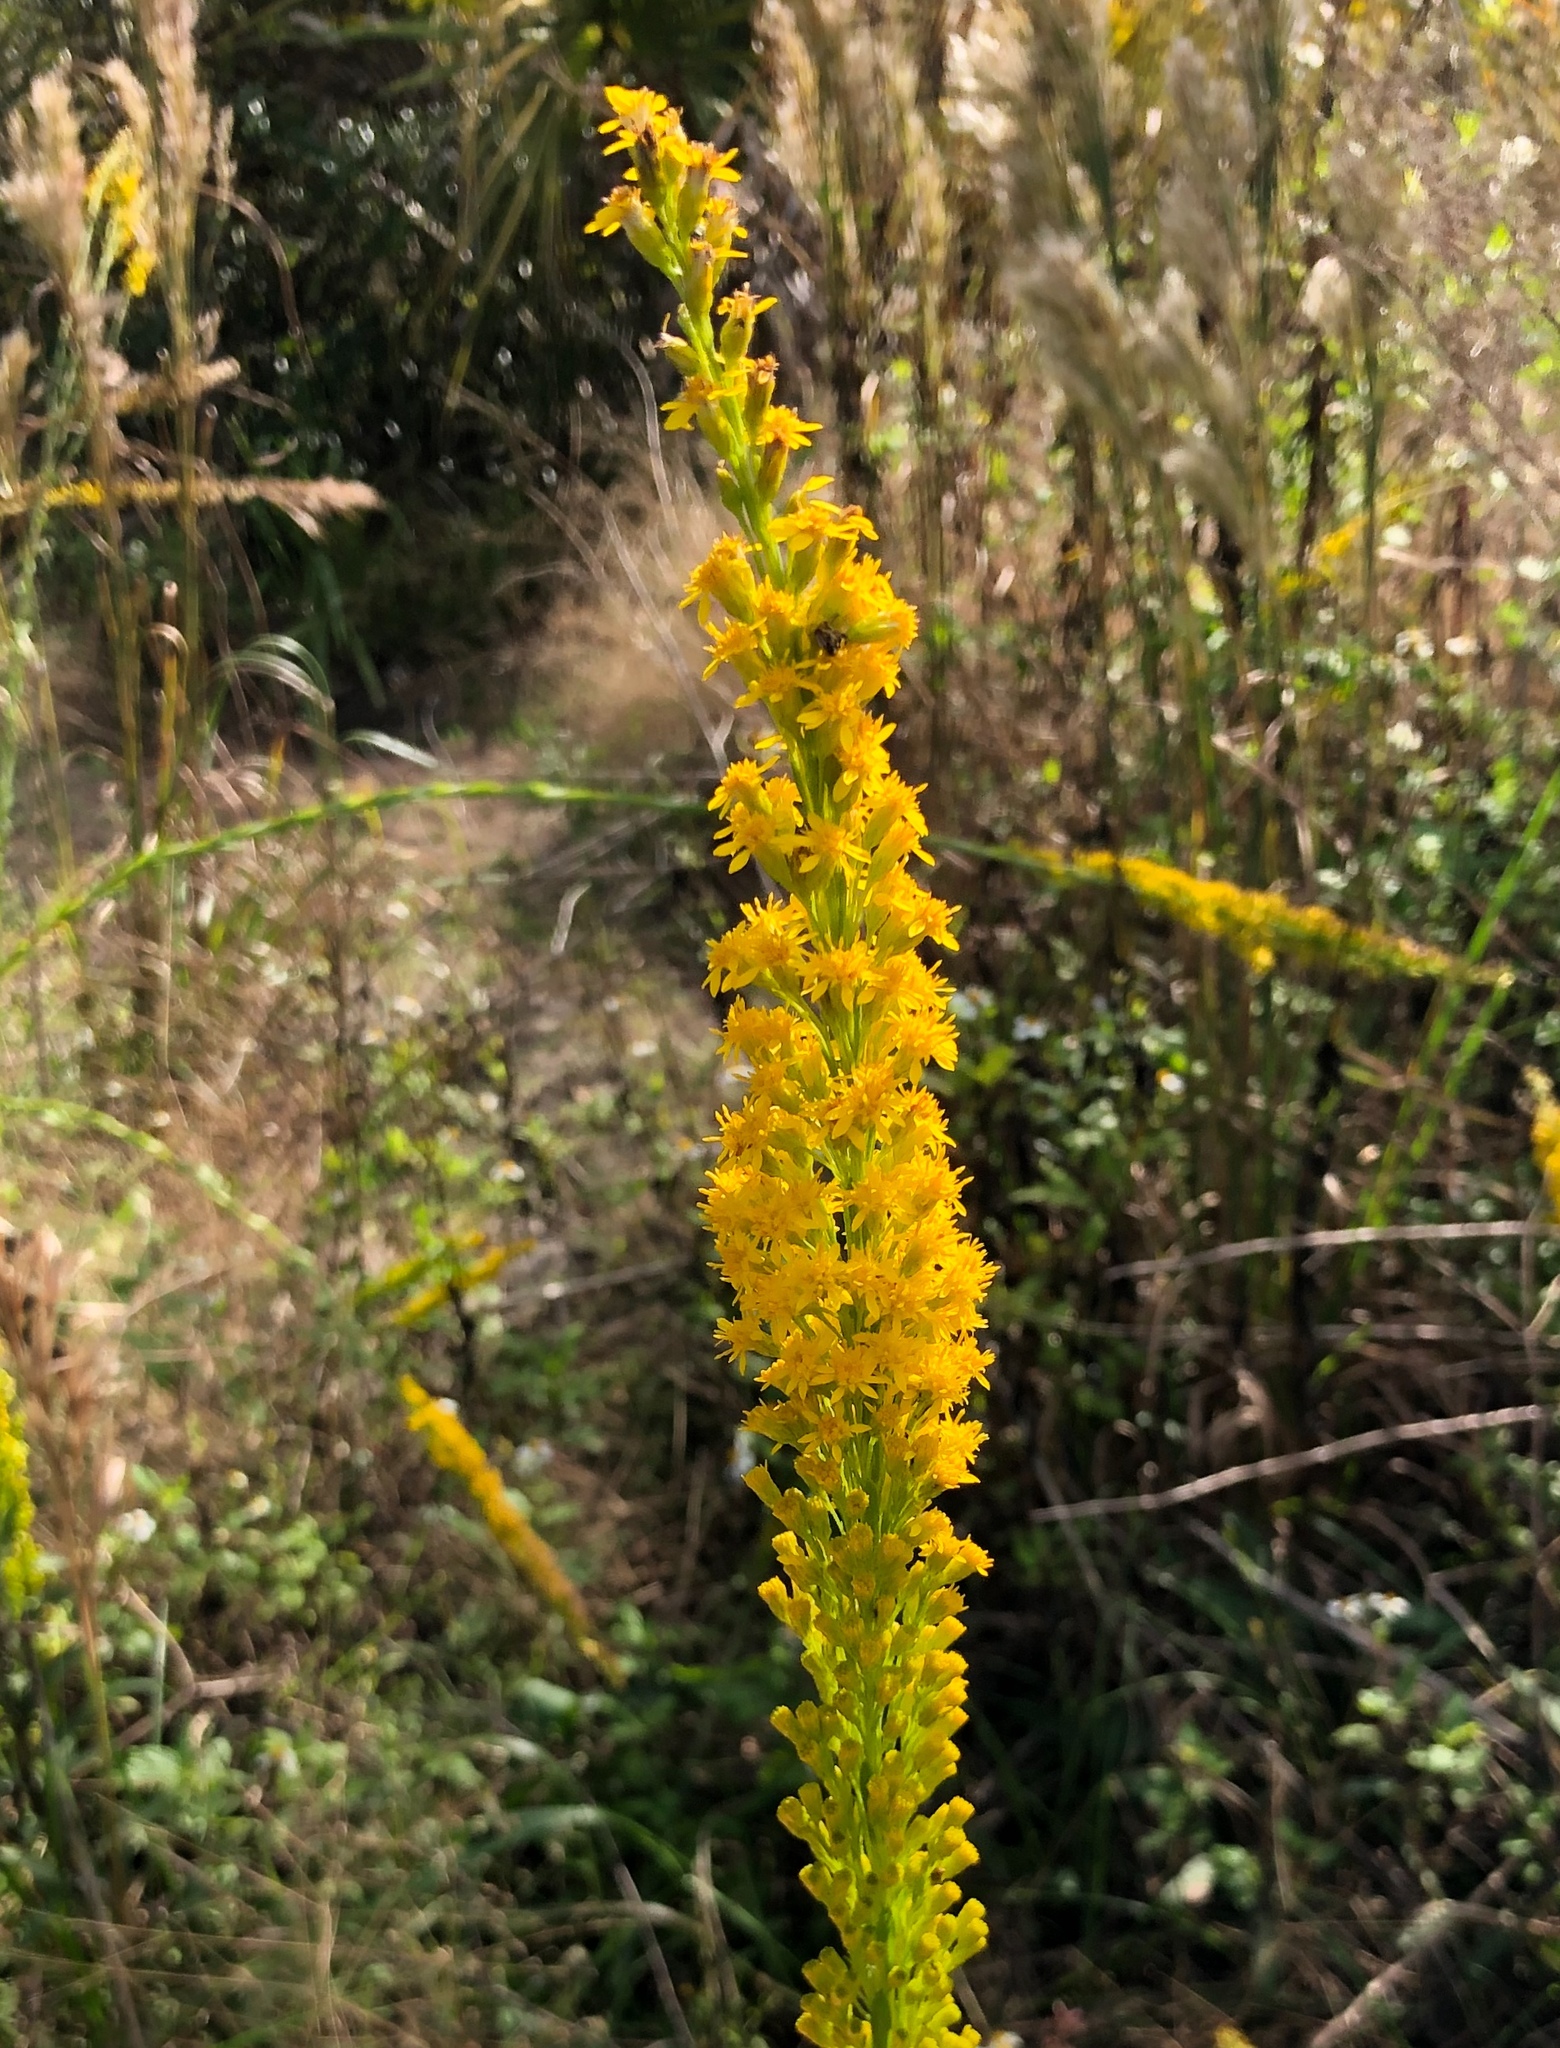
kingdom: Plantae
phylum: Tracheophyta
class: Magnoliopsida
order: Asterales
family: Asteraceae
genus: Solidago
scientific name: Solidago mexicana
